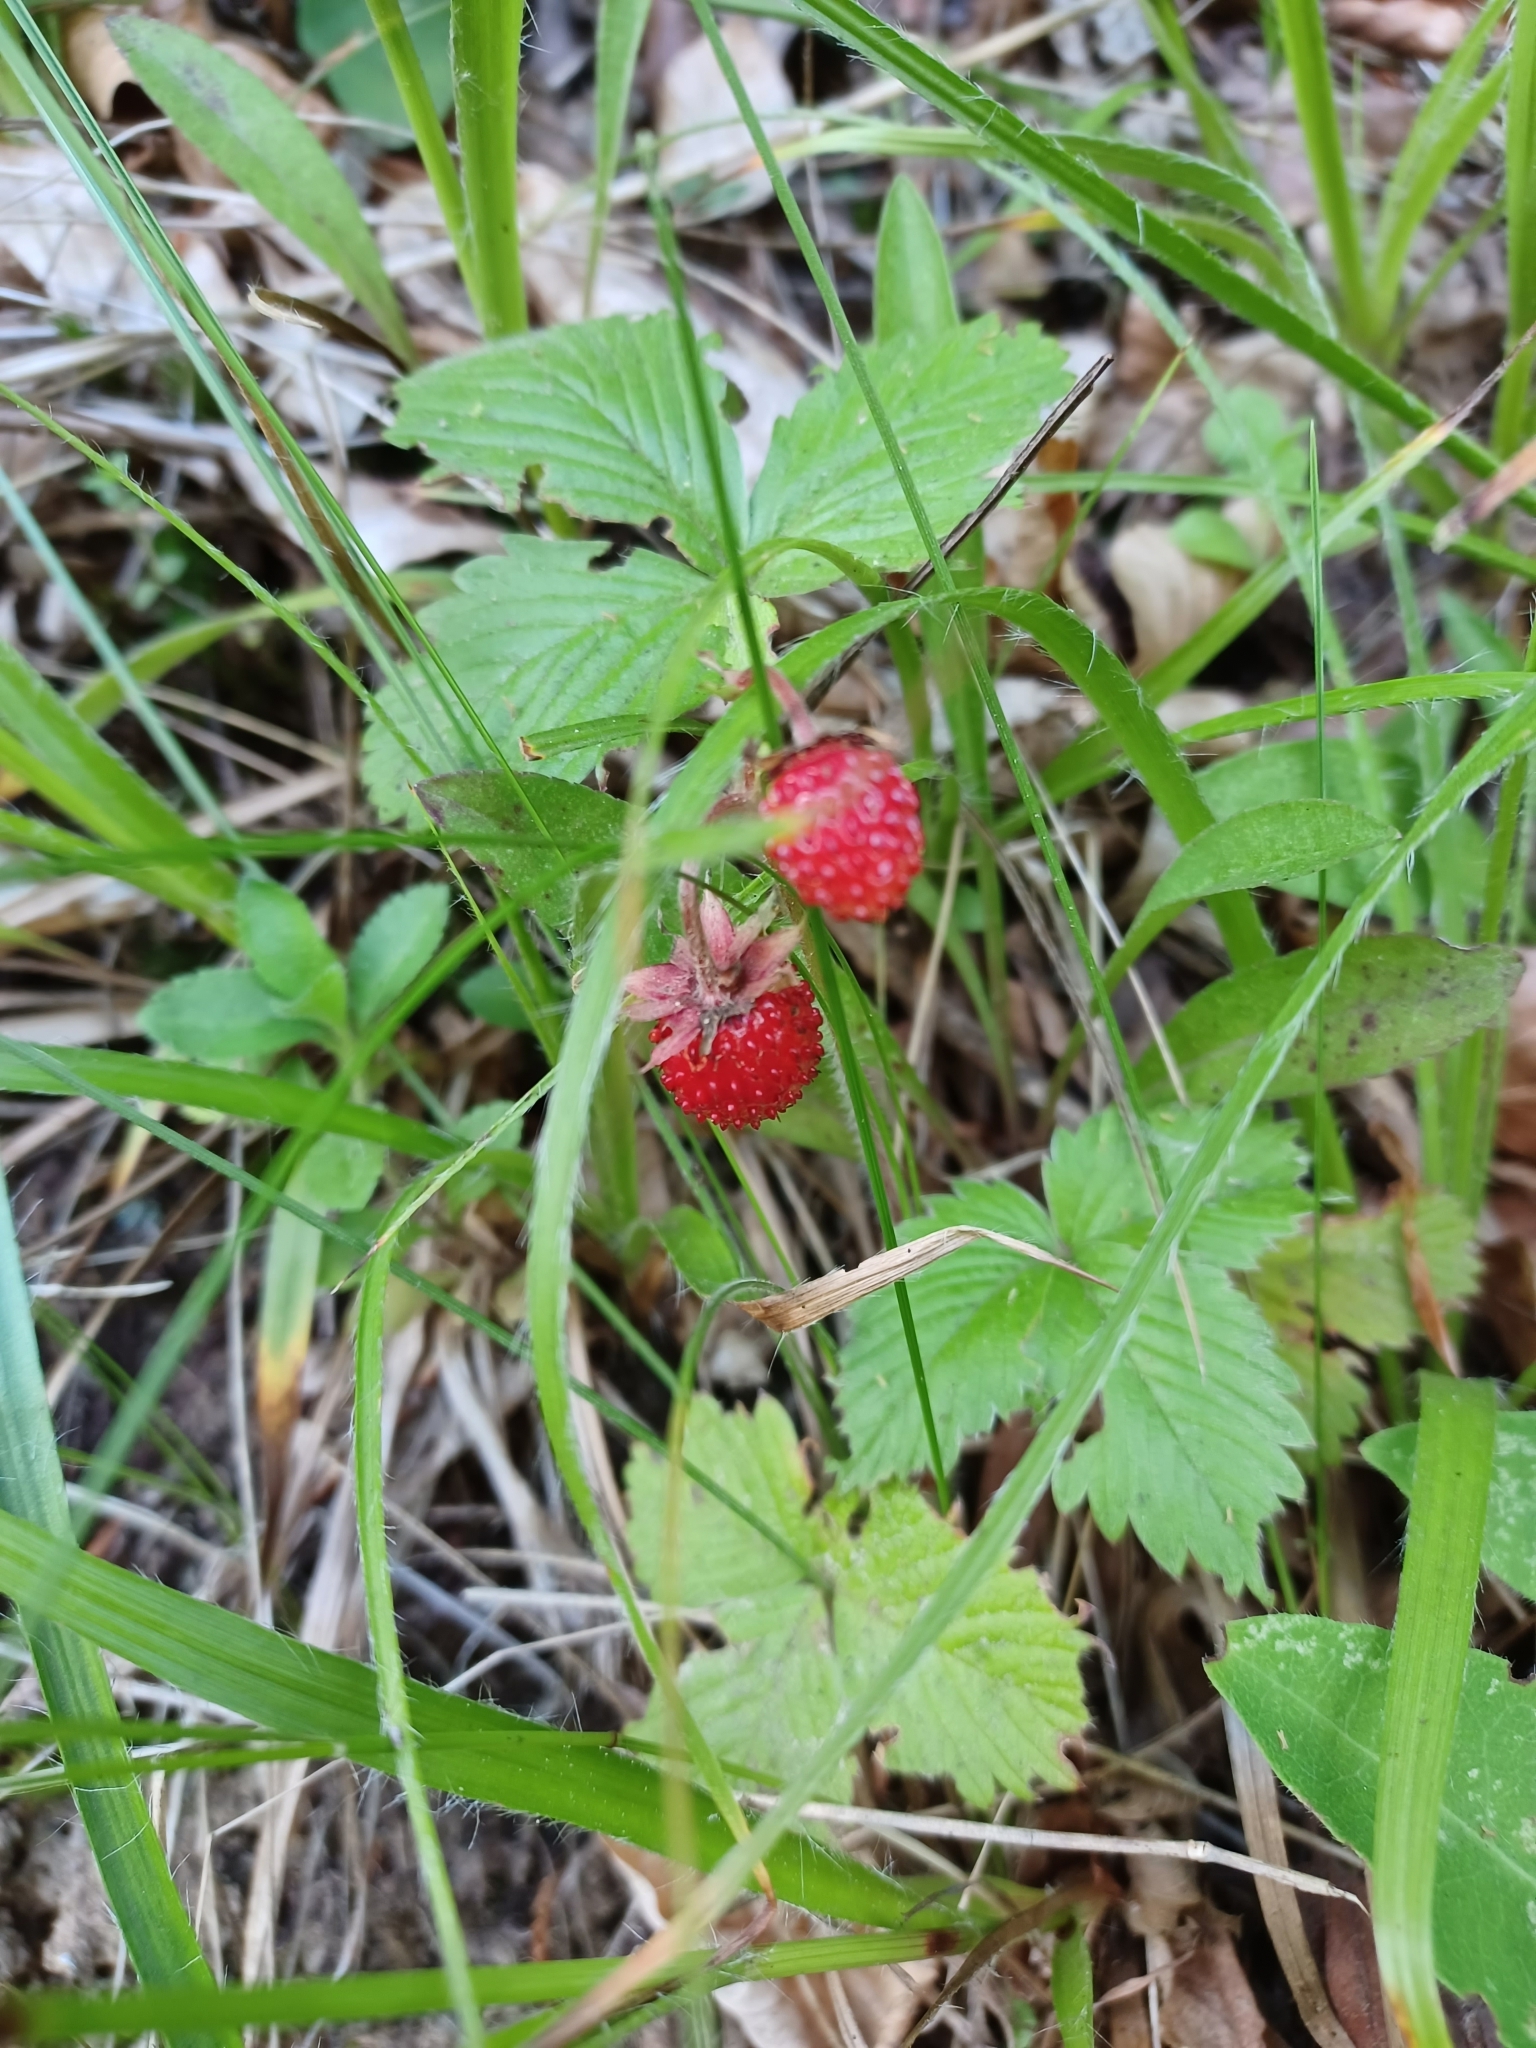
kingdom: Plantae
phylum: Tracheophyta
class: Magnoliopsida
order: Rosales
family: Rosaceae
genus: Fragaria
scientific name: Fragaria vesca
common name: Wild strawberry
